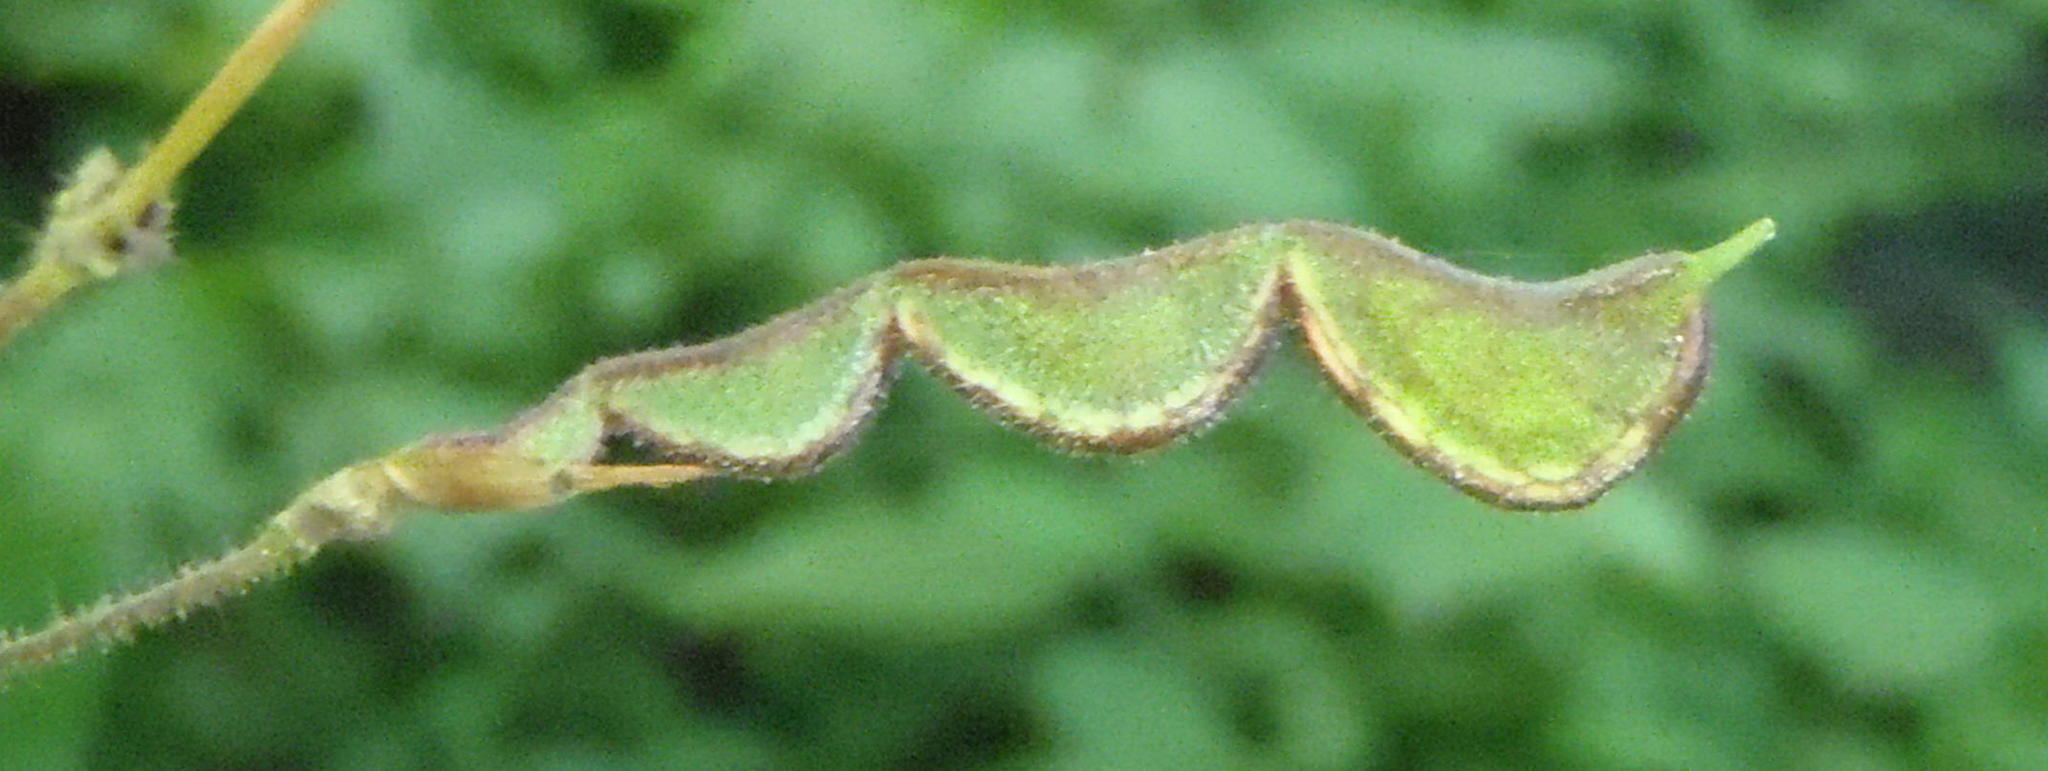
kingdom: Plantae
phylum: Tracheophyta
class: Magnoliopsida
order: Fabales
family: Fabaceae
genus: Hylodesmum
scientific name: Hylodesmum repandum
